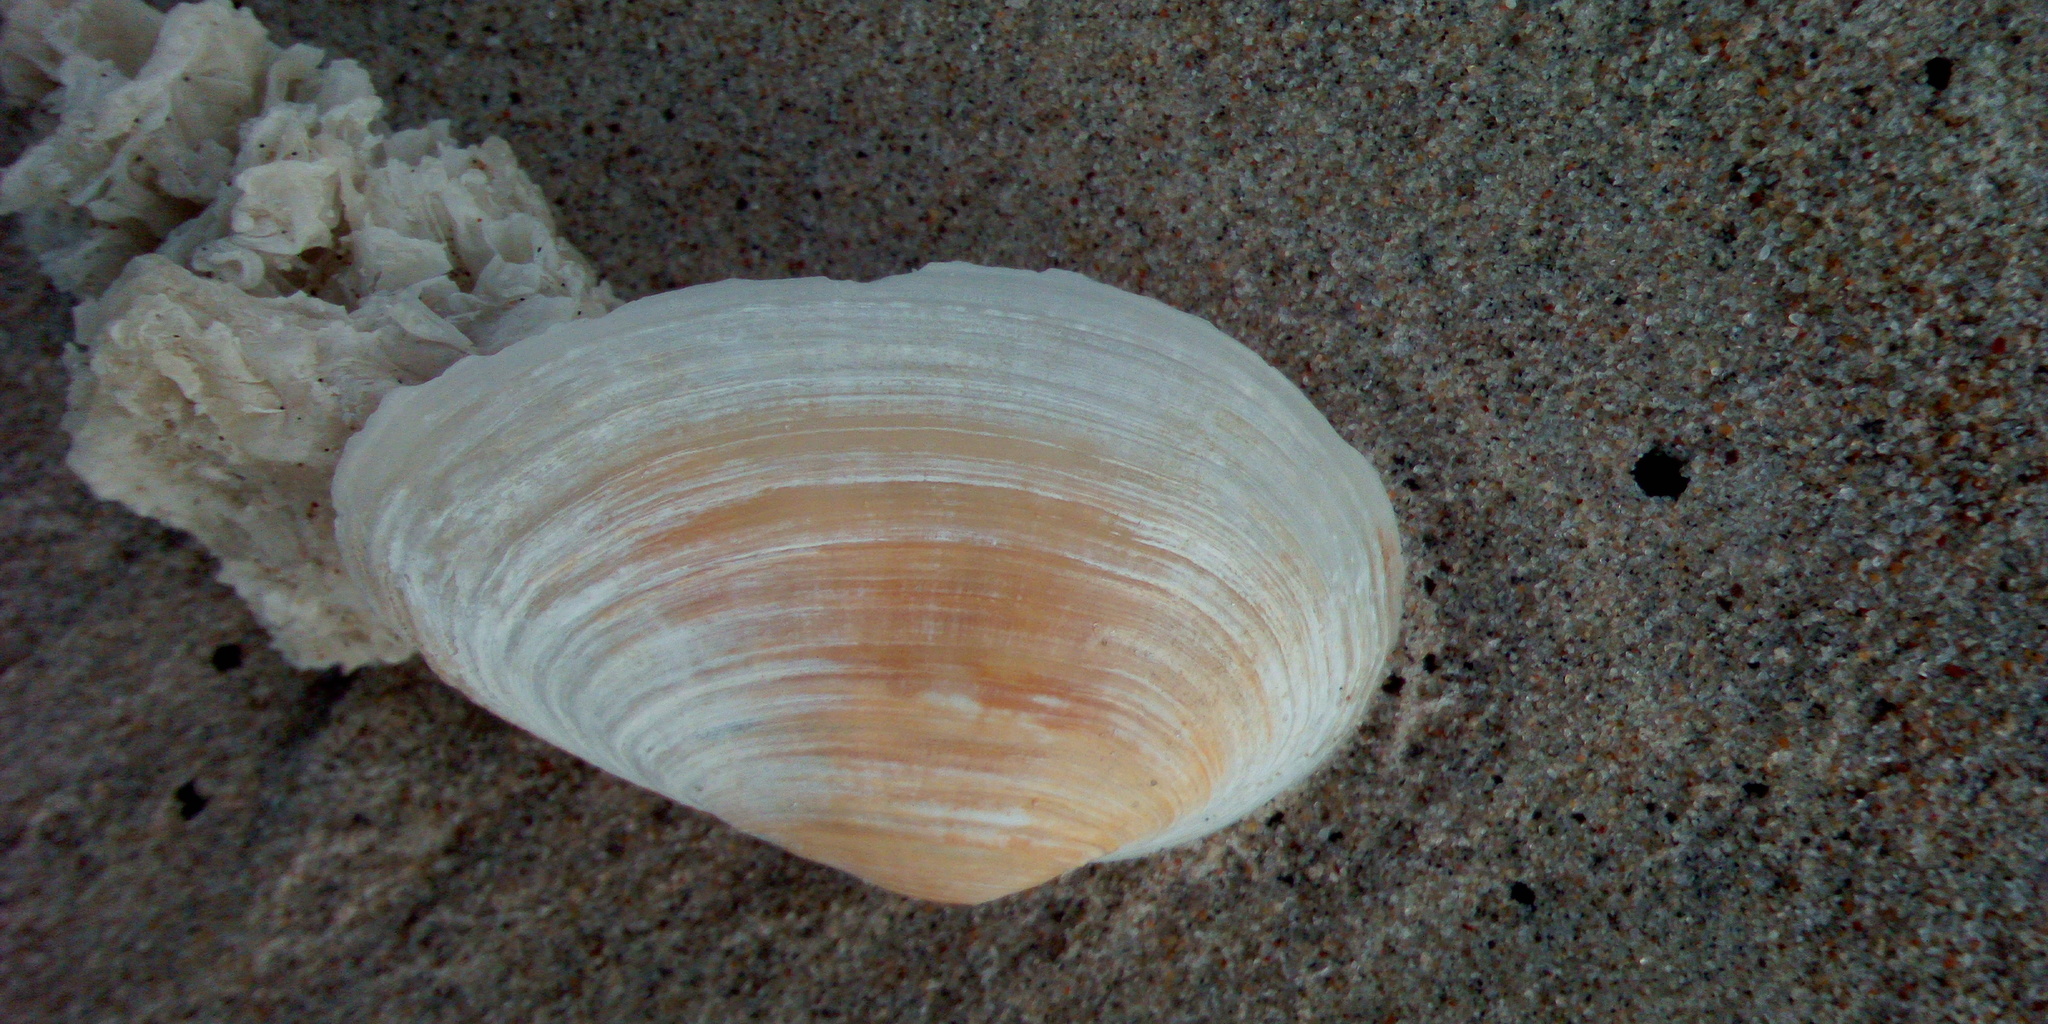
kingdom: Animalia
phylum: Mollusca
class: Bivalvia
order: Myida
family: Myidae
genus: Mya
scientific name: Mya arenaria
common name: Soft-shelled clam
